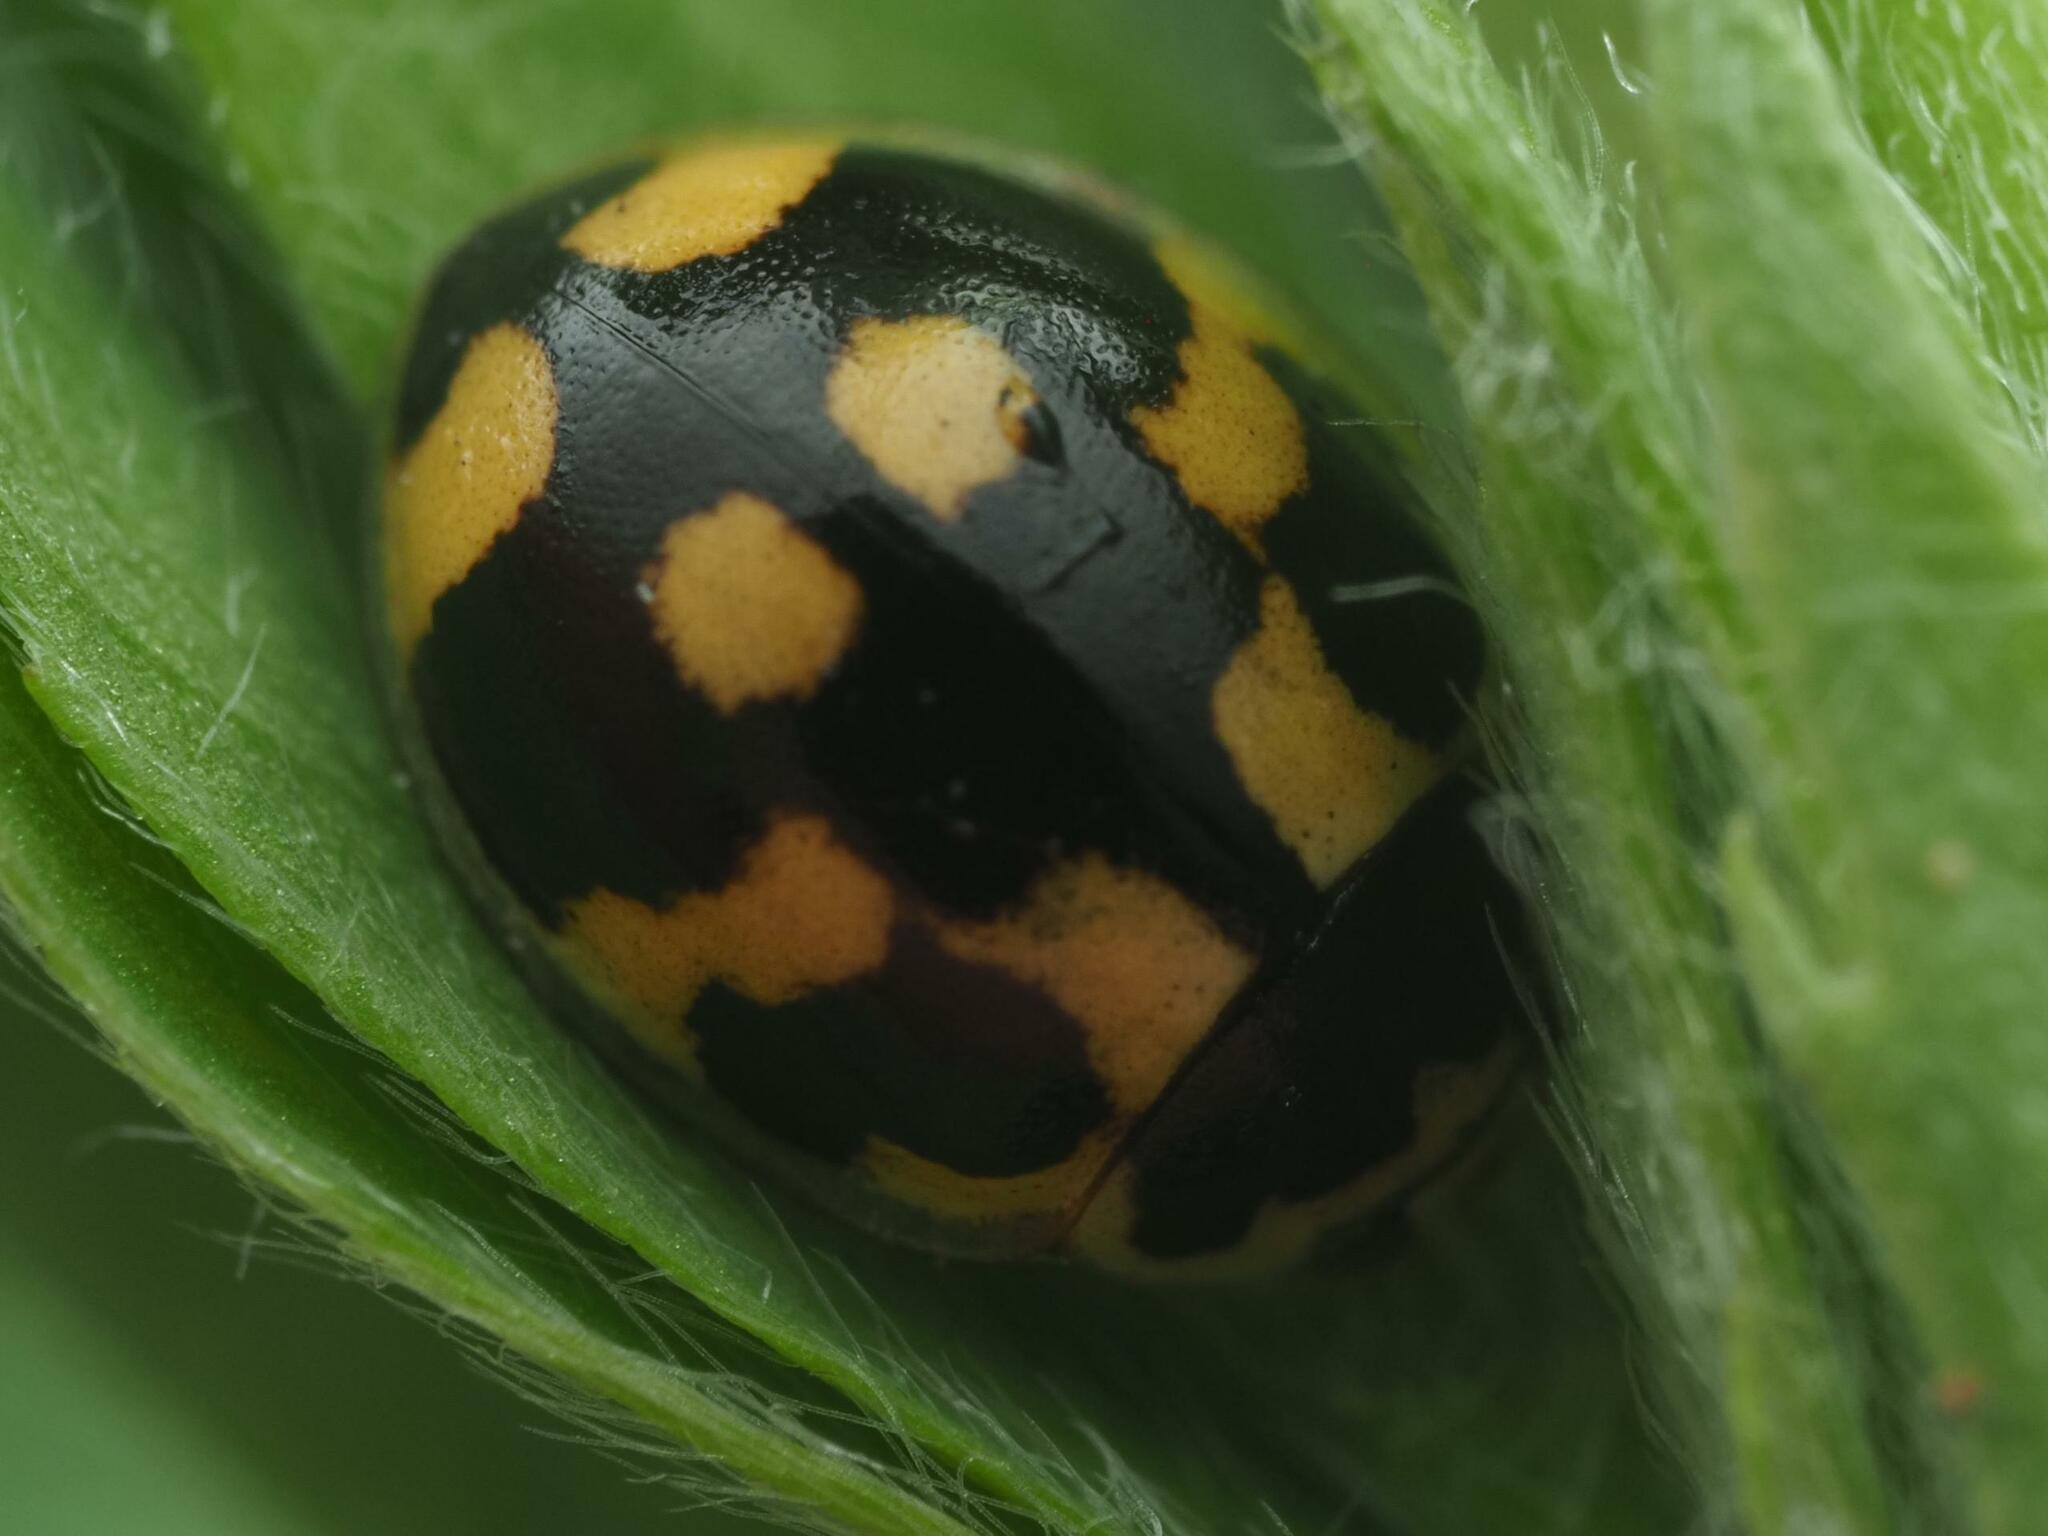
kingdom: Animalia
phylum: Arthropoda
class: Insecta
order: Coleoptera
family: Coccinellidae
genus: Propylaea
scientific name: Propylaea quatuordecimpunctata
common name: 14-spotted ladybird beetle
